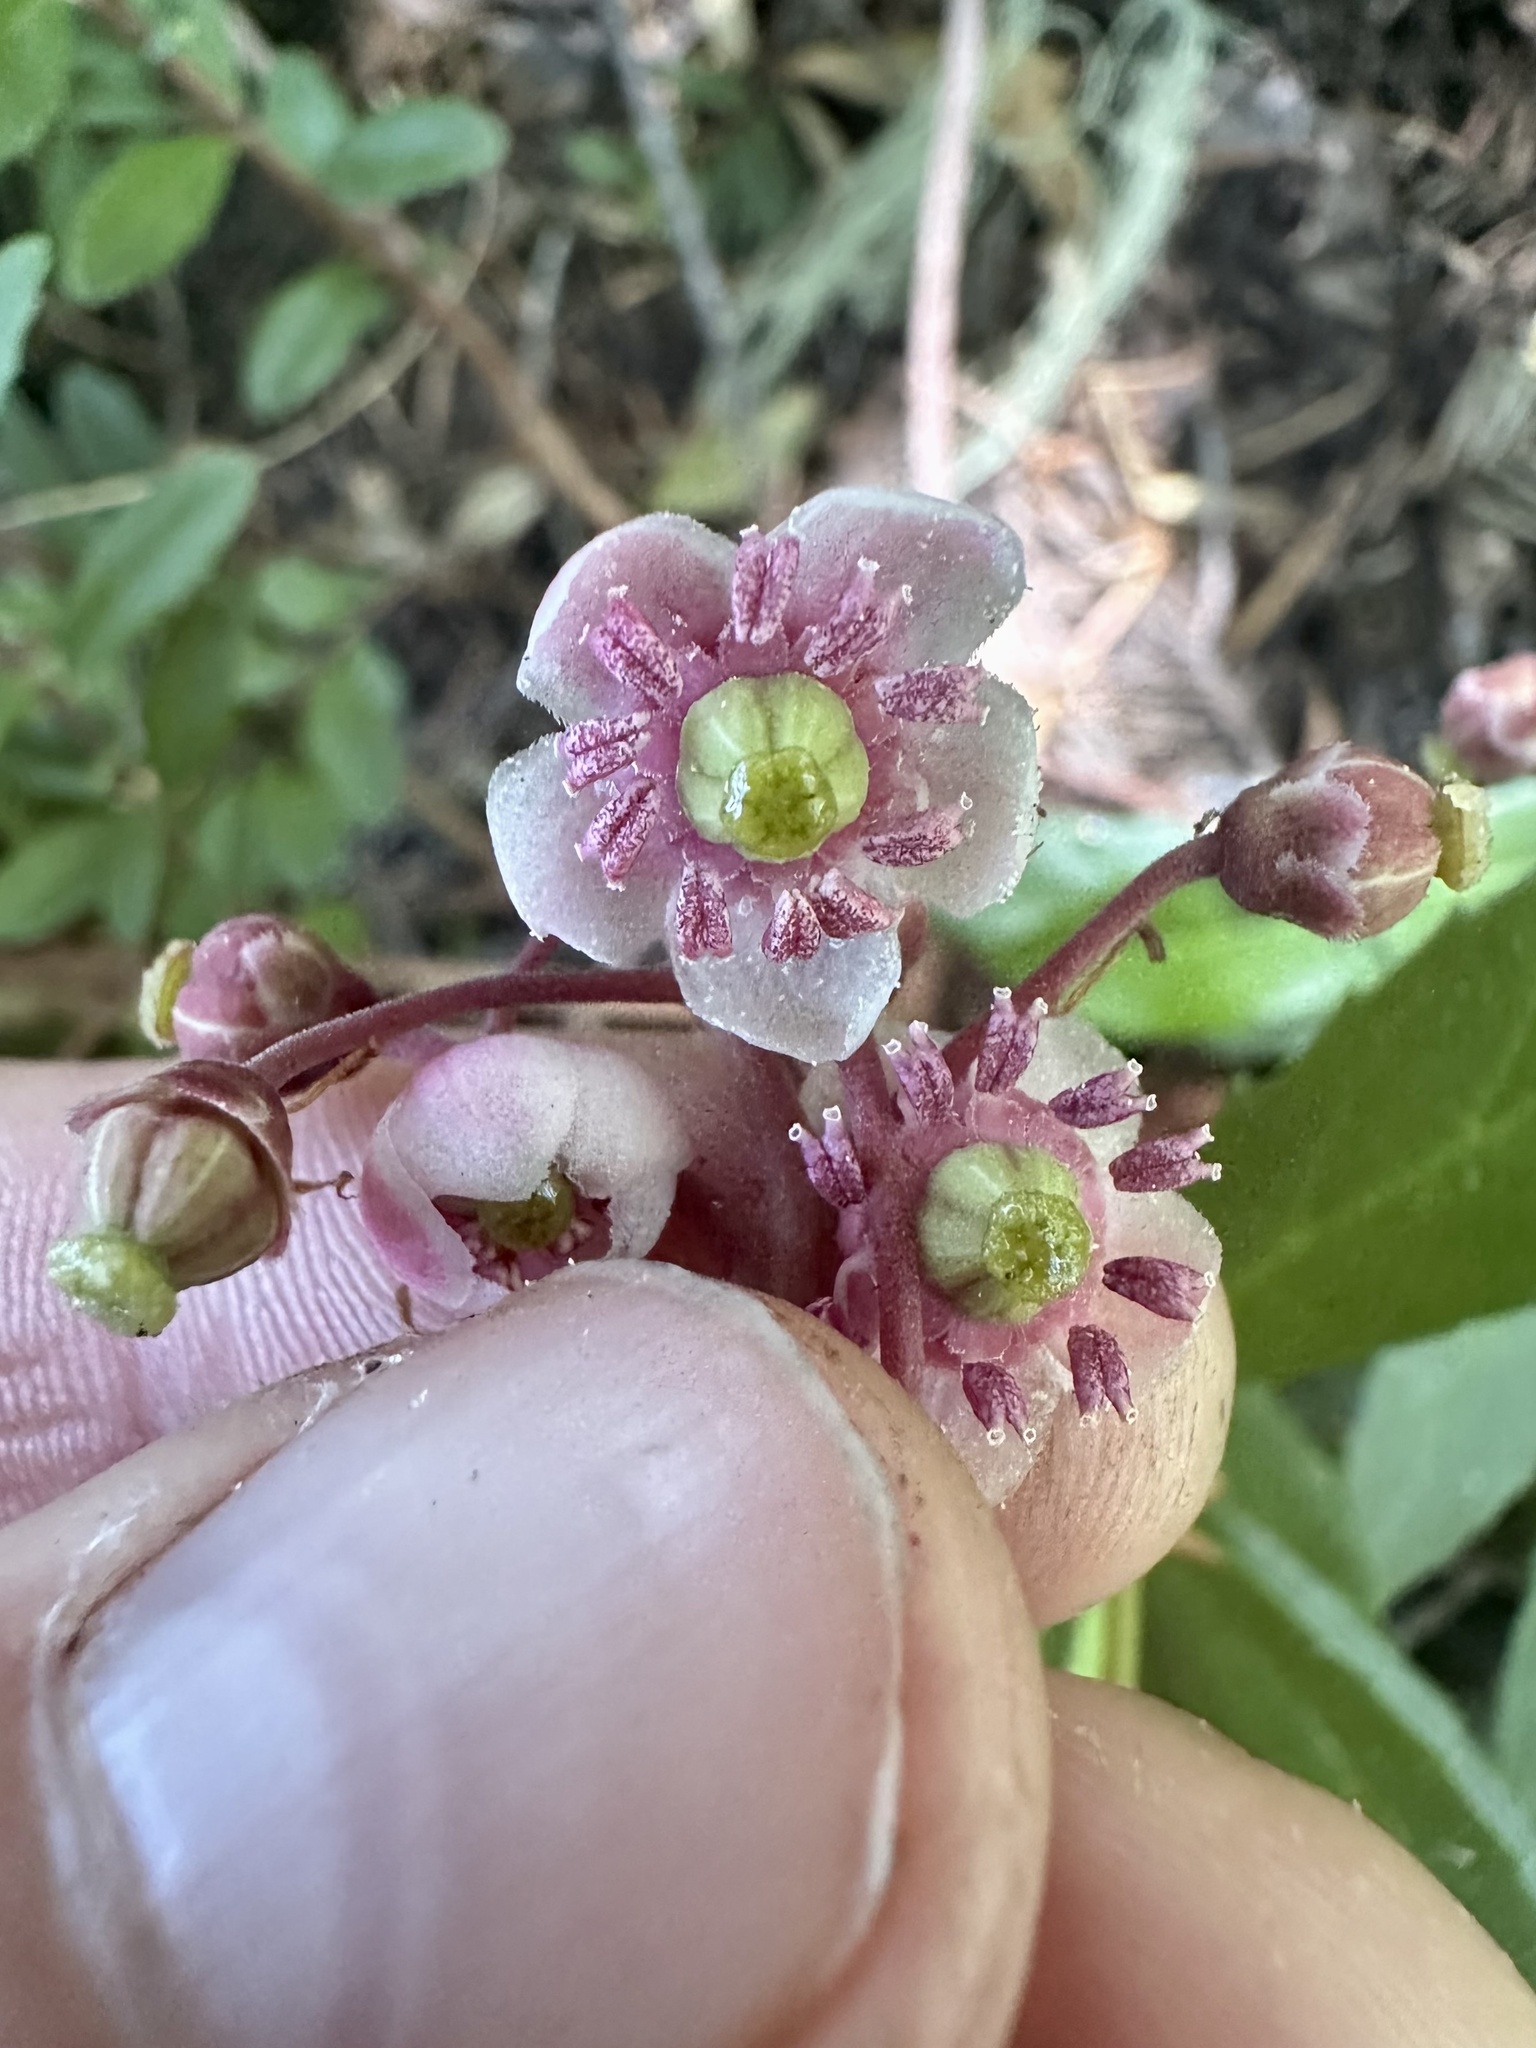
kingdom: Plantae
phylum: Tracheophyta
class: Magnoliopsida
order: Ericales
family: Ericaceae
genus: Chimaphila
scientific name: Chimaphila umbellata
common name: Pipsissewa
